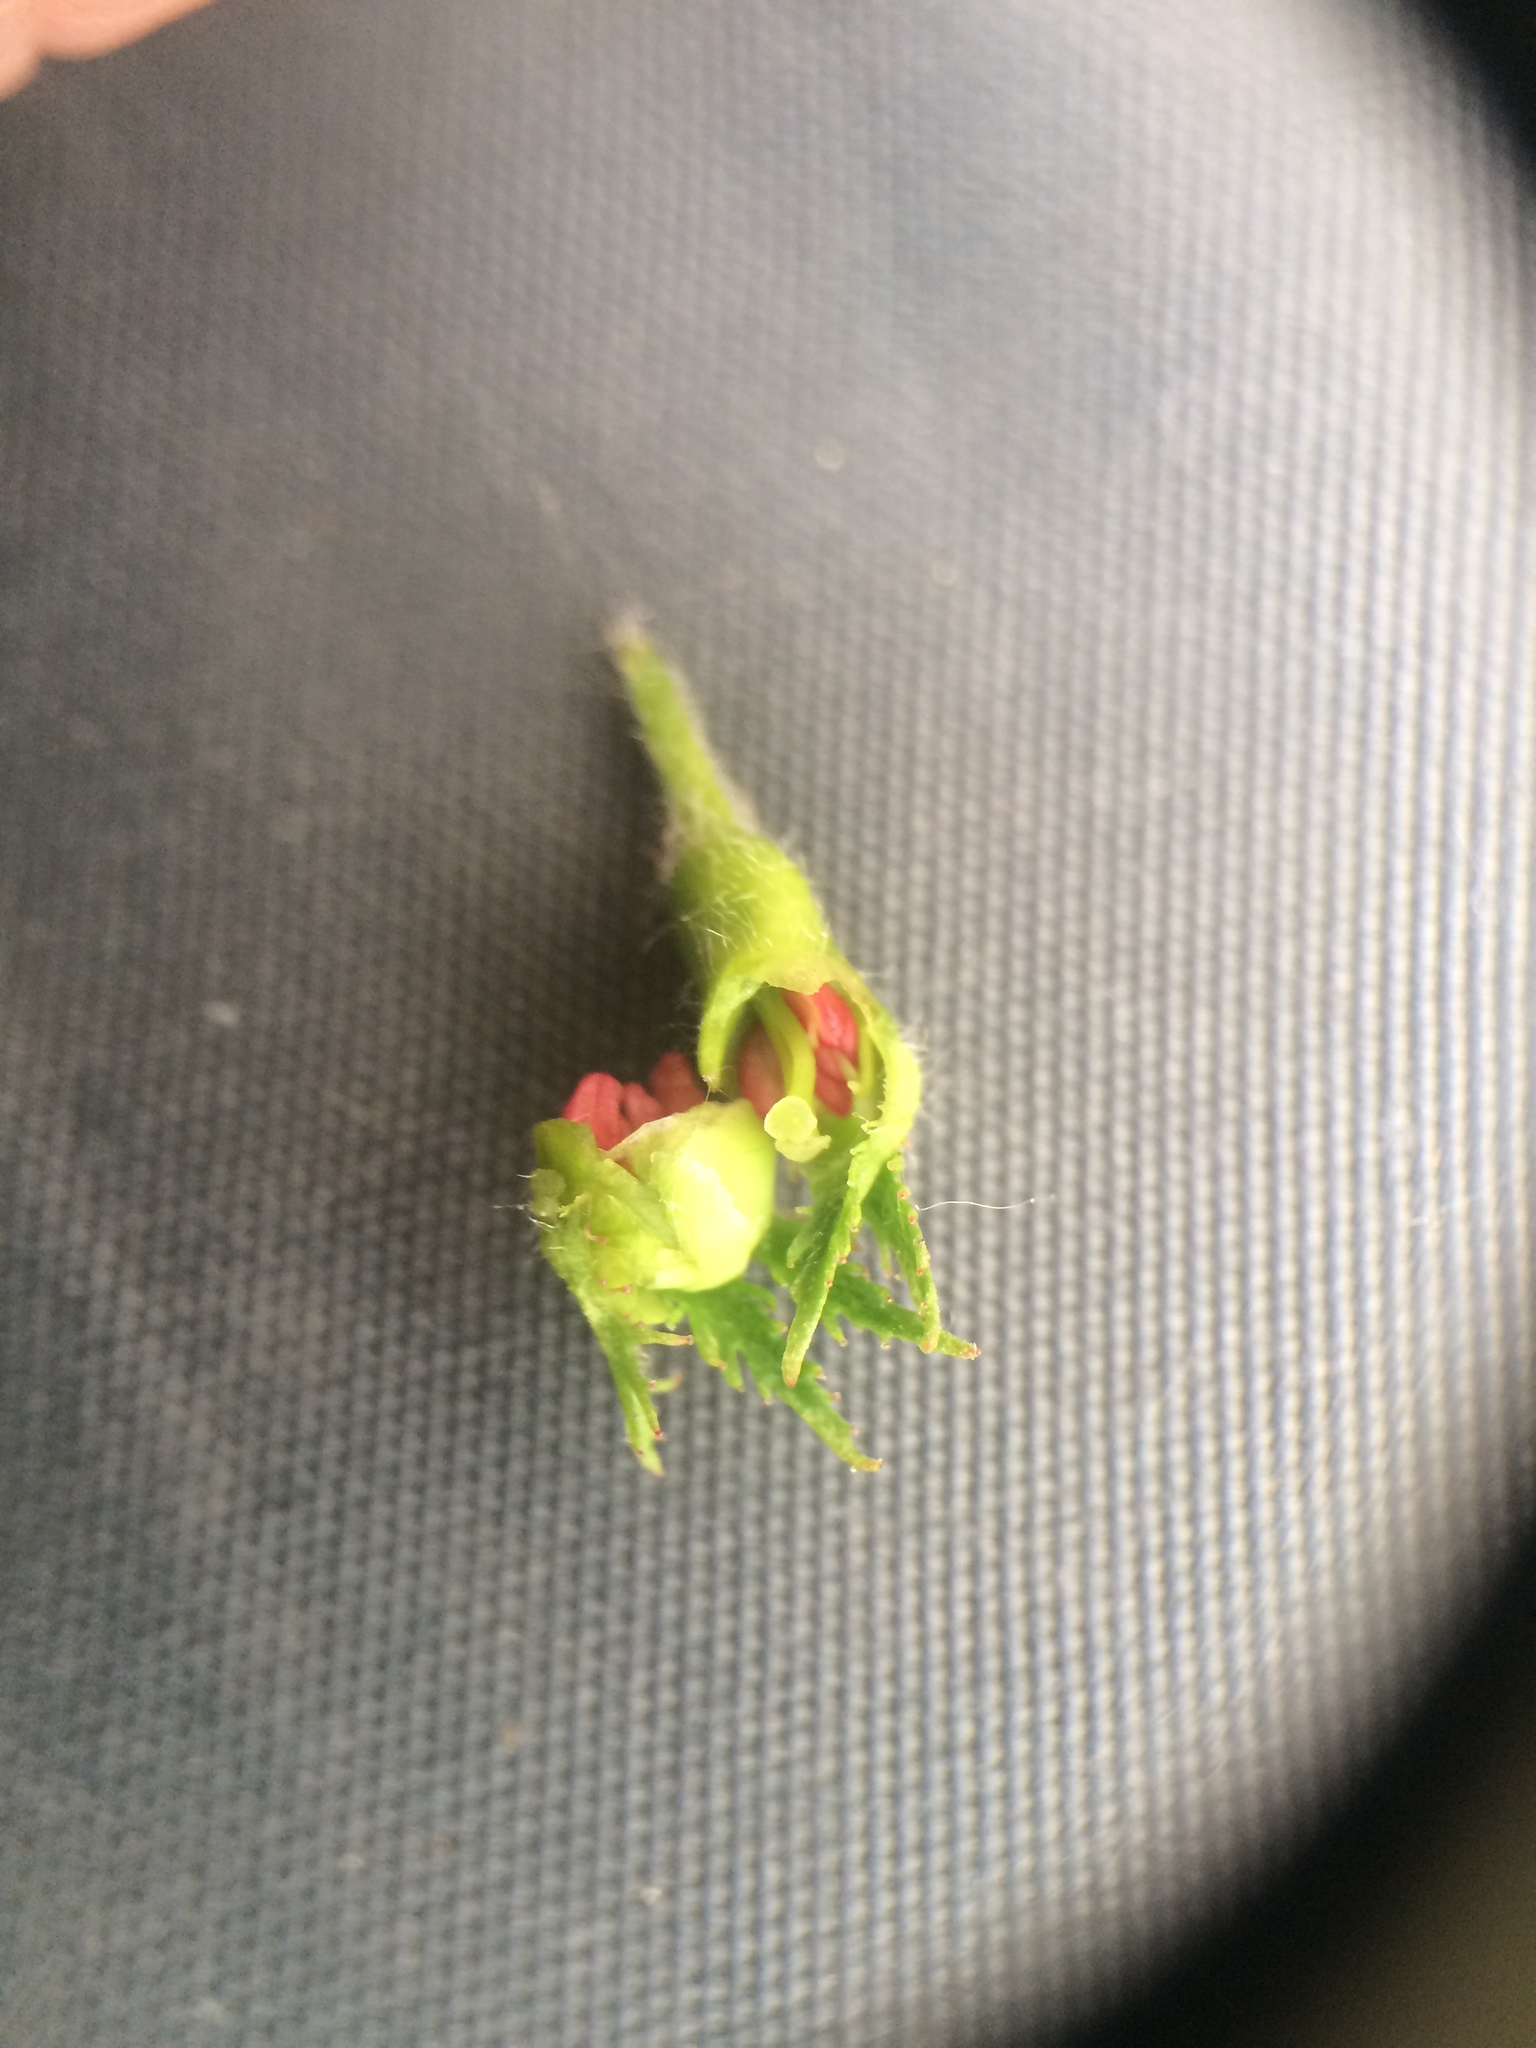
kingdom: Plantae
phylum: Tracheophyta
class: Magnoliopsida
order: Rosales
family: Rosaceae
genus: Crataegus
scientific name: Crataegus macracantha
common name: Large-thorn hawthorn
